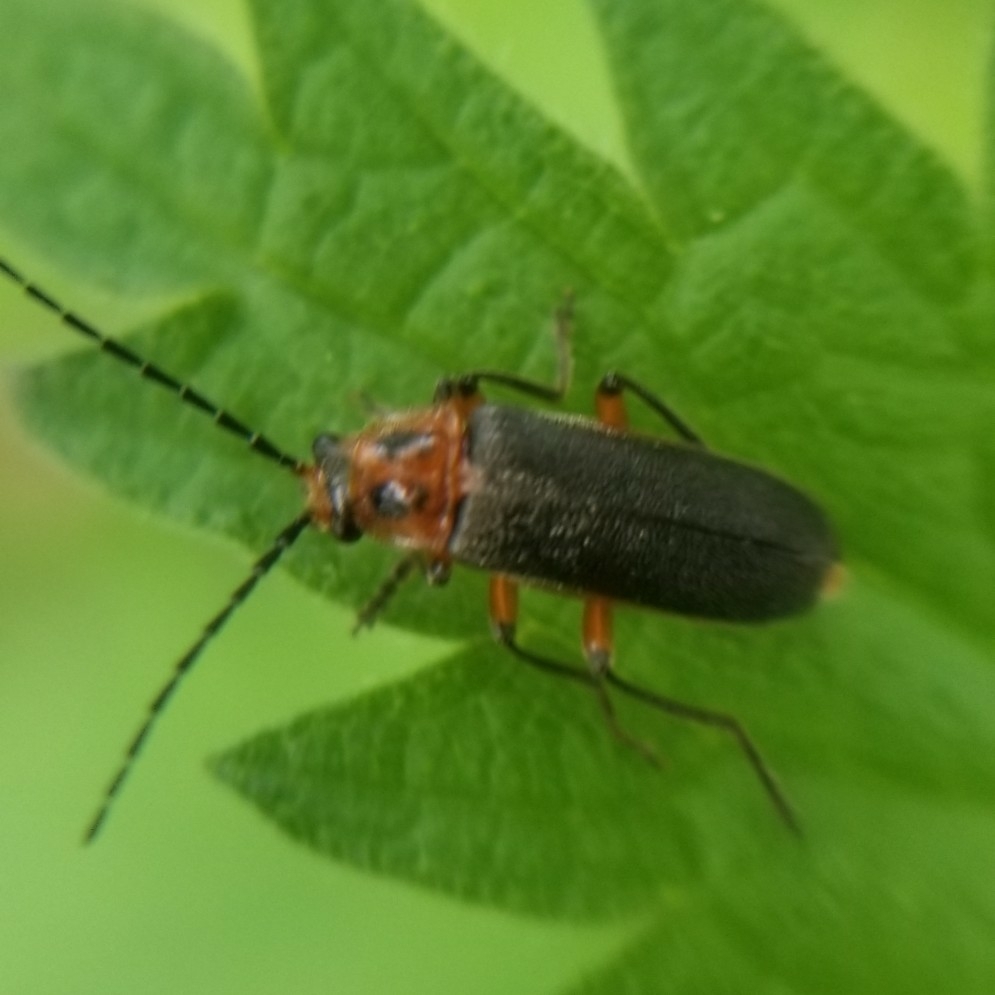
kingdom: Animalia
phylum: Arthropoda
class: Insecta
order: Coleoptera
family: Cantharidae
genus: Atalantycha
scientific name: Atalantycha bilineata
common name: Two-lined leatherwing
